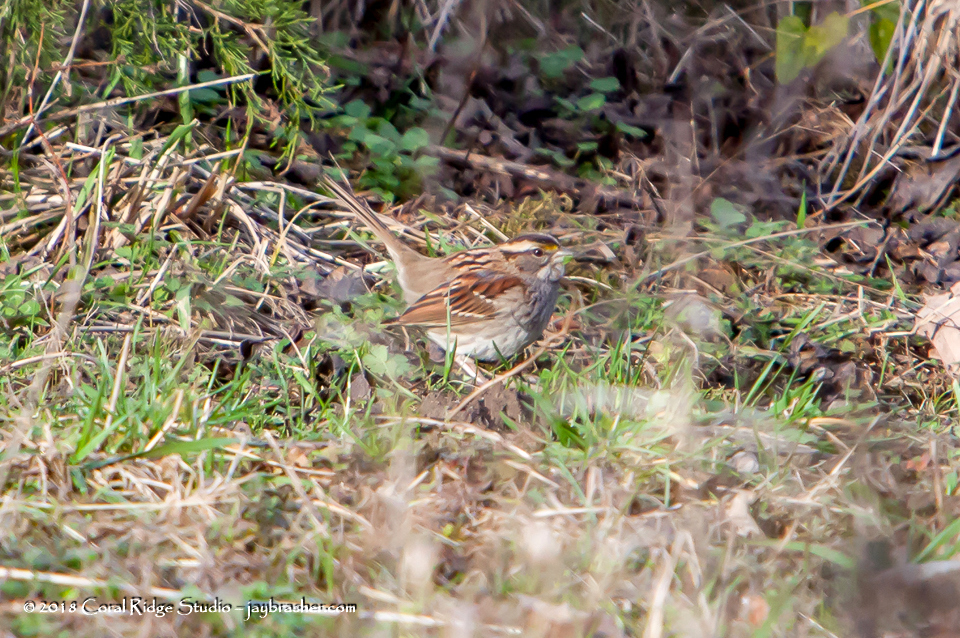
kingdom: Animalia
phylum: Chordata
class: Aves
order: Passeriformes
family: Passerellidae
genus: Zonotrichia
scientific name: Zonotrichia albicollis
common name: White-throated sparrow
